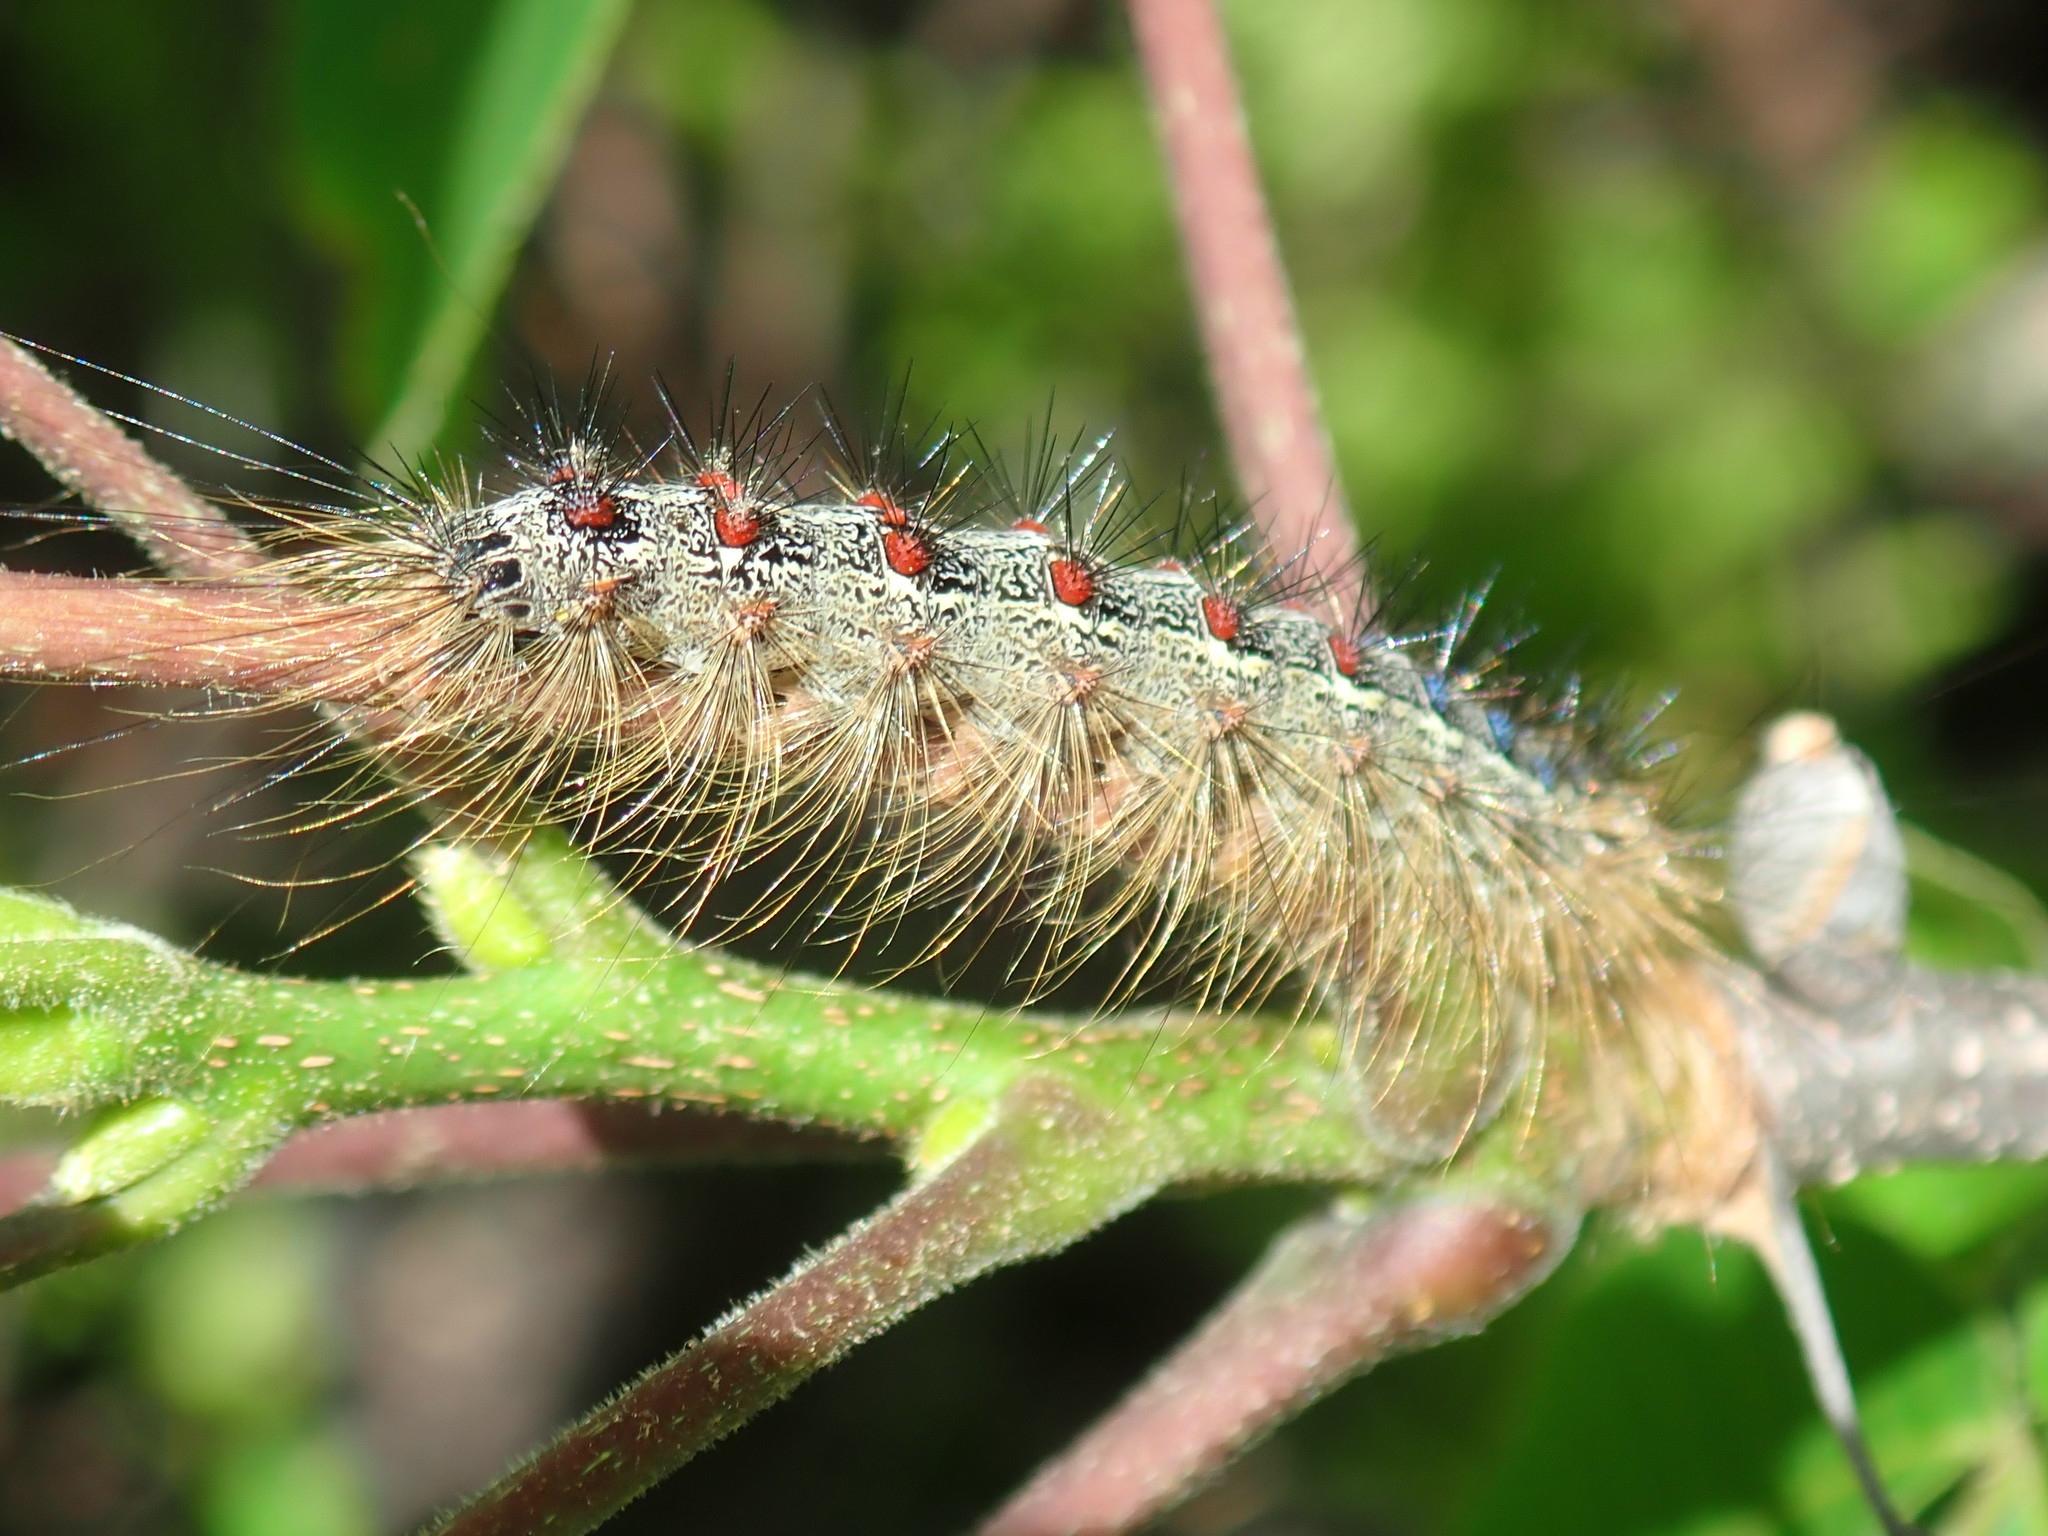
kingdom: Animalia
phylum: Arthropoda
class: Insecta
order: Lepidoptera
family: Erebidae
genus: Lymantria
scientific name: Lymantria dispar
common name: Gypsy moth
